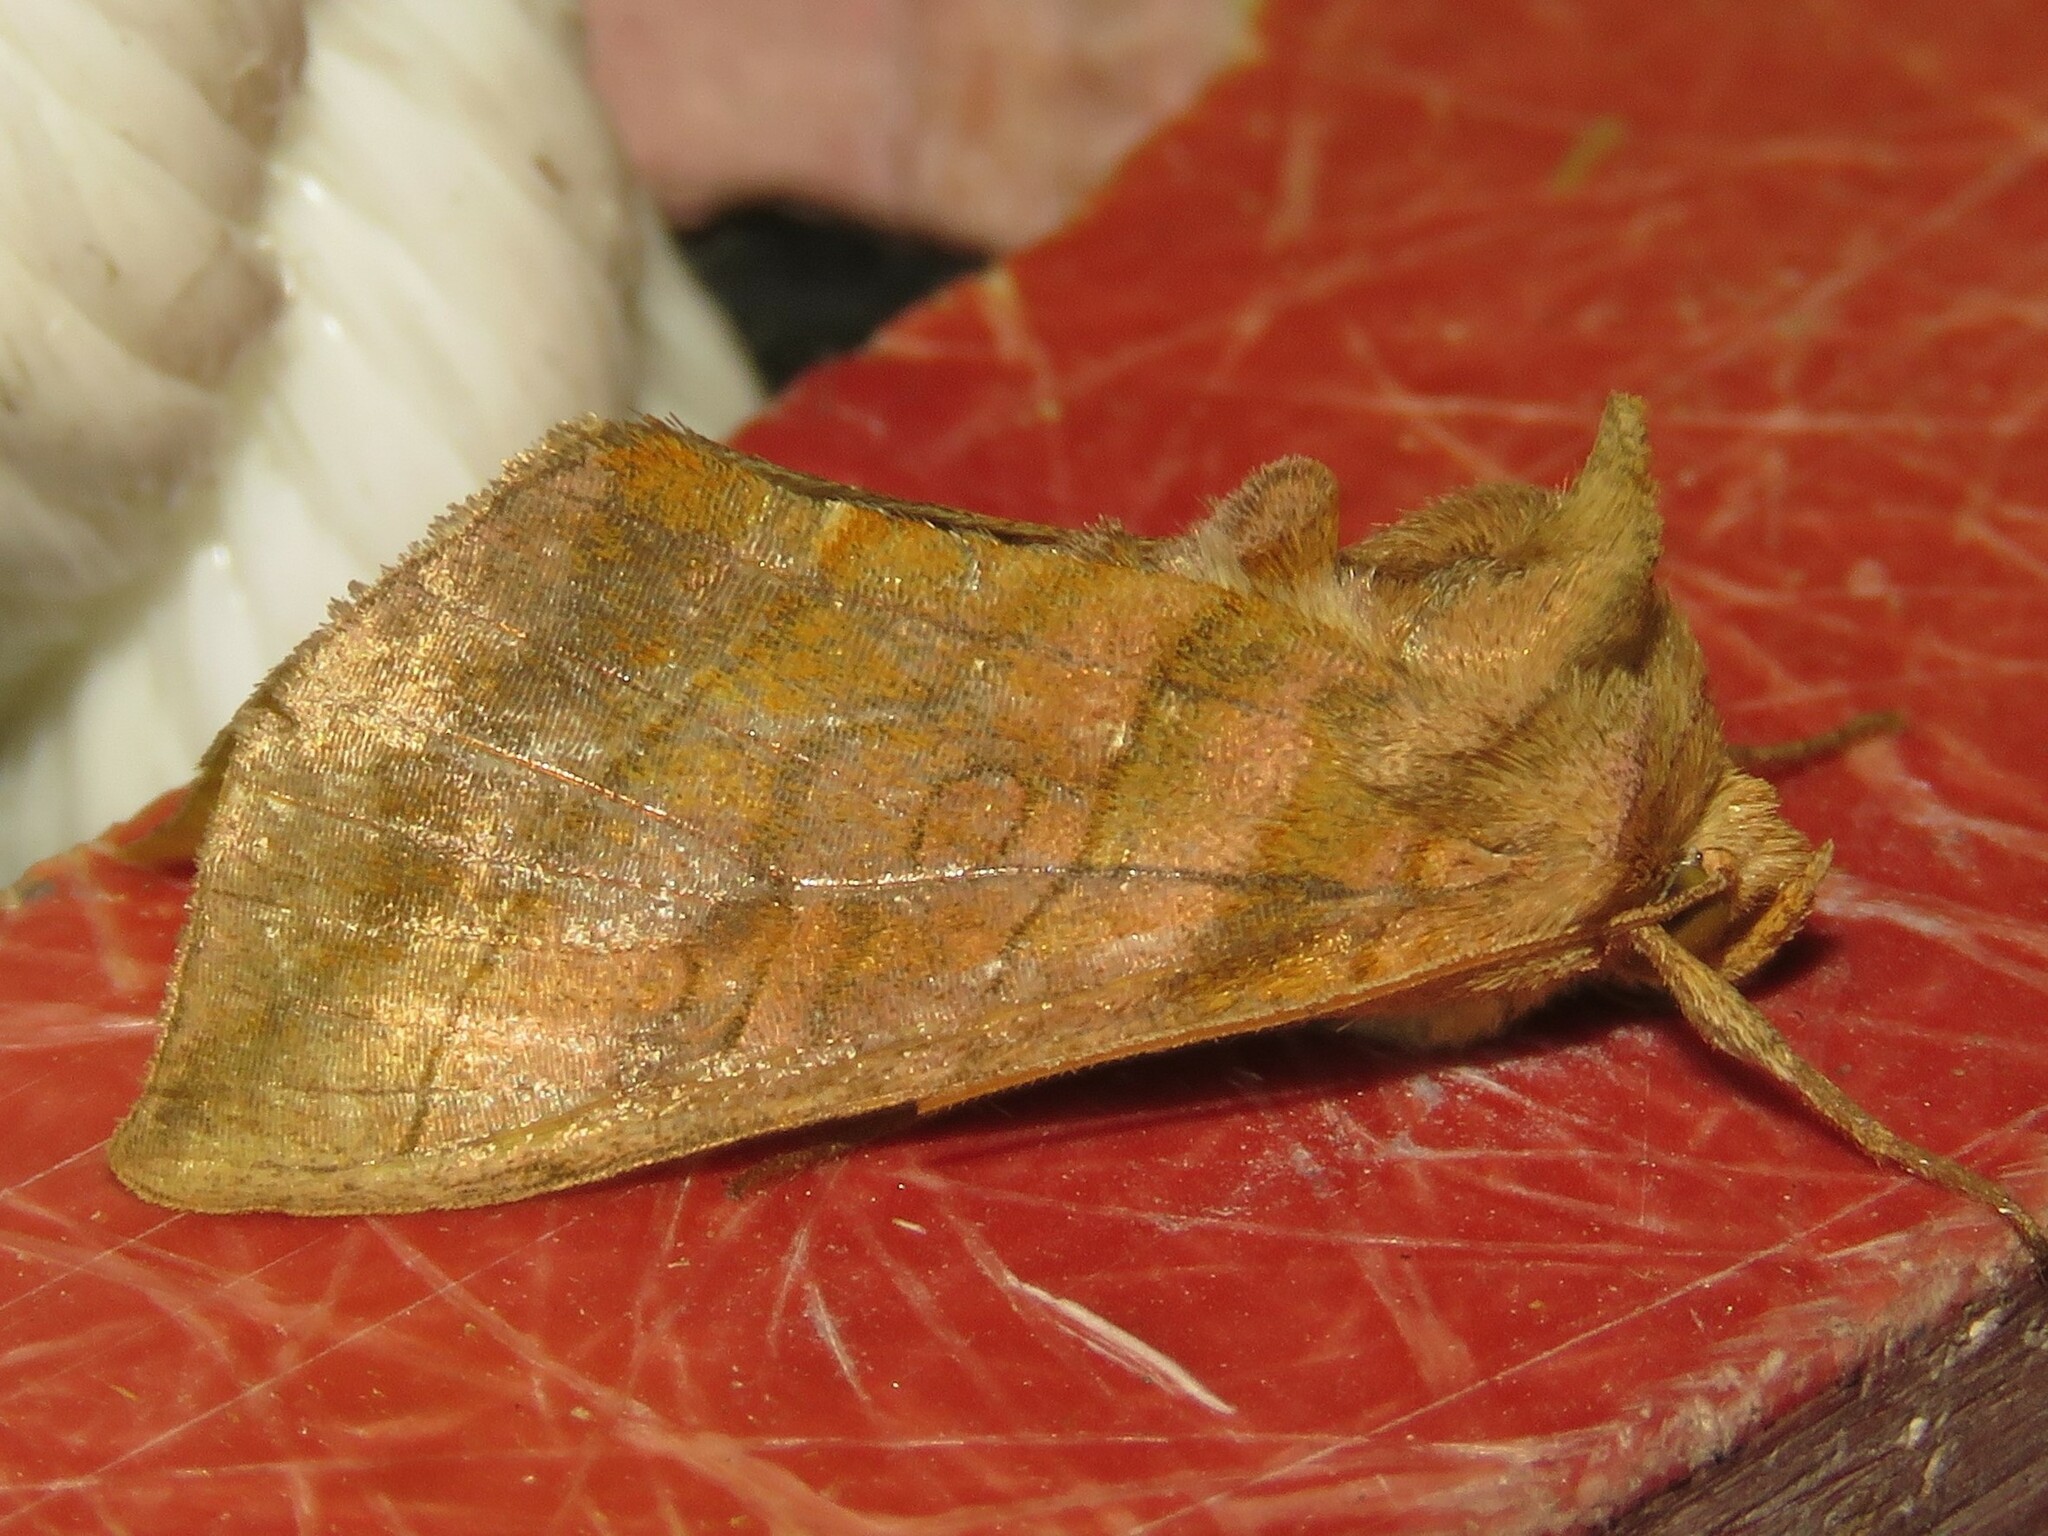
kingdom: Animalia
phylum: Arthropoda
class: Insecta
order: Lepidoptera
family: Noctuidae
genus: Diachrysia
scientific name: Diachrysia aereoides
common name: Dark-spotted looper moth
